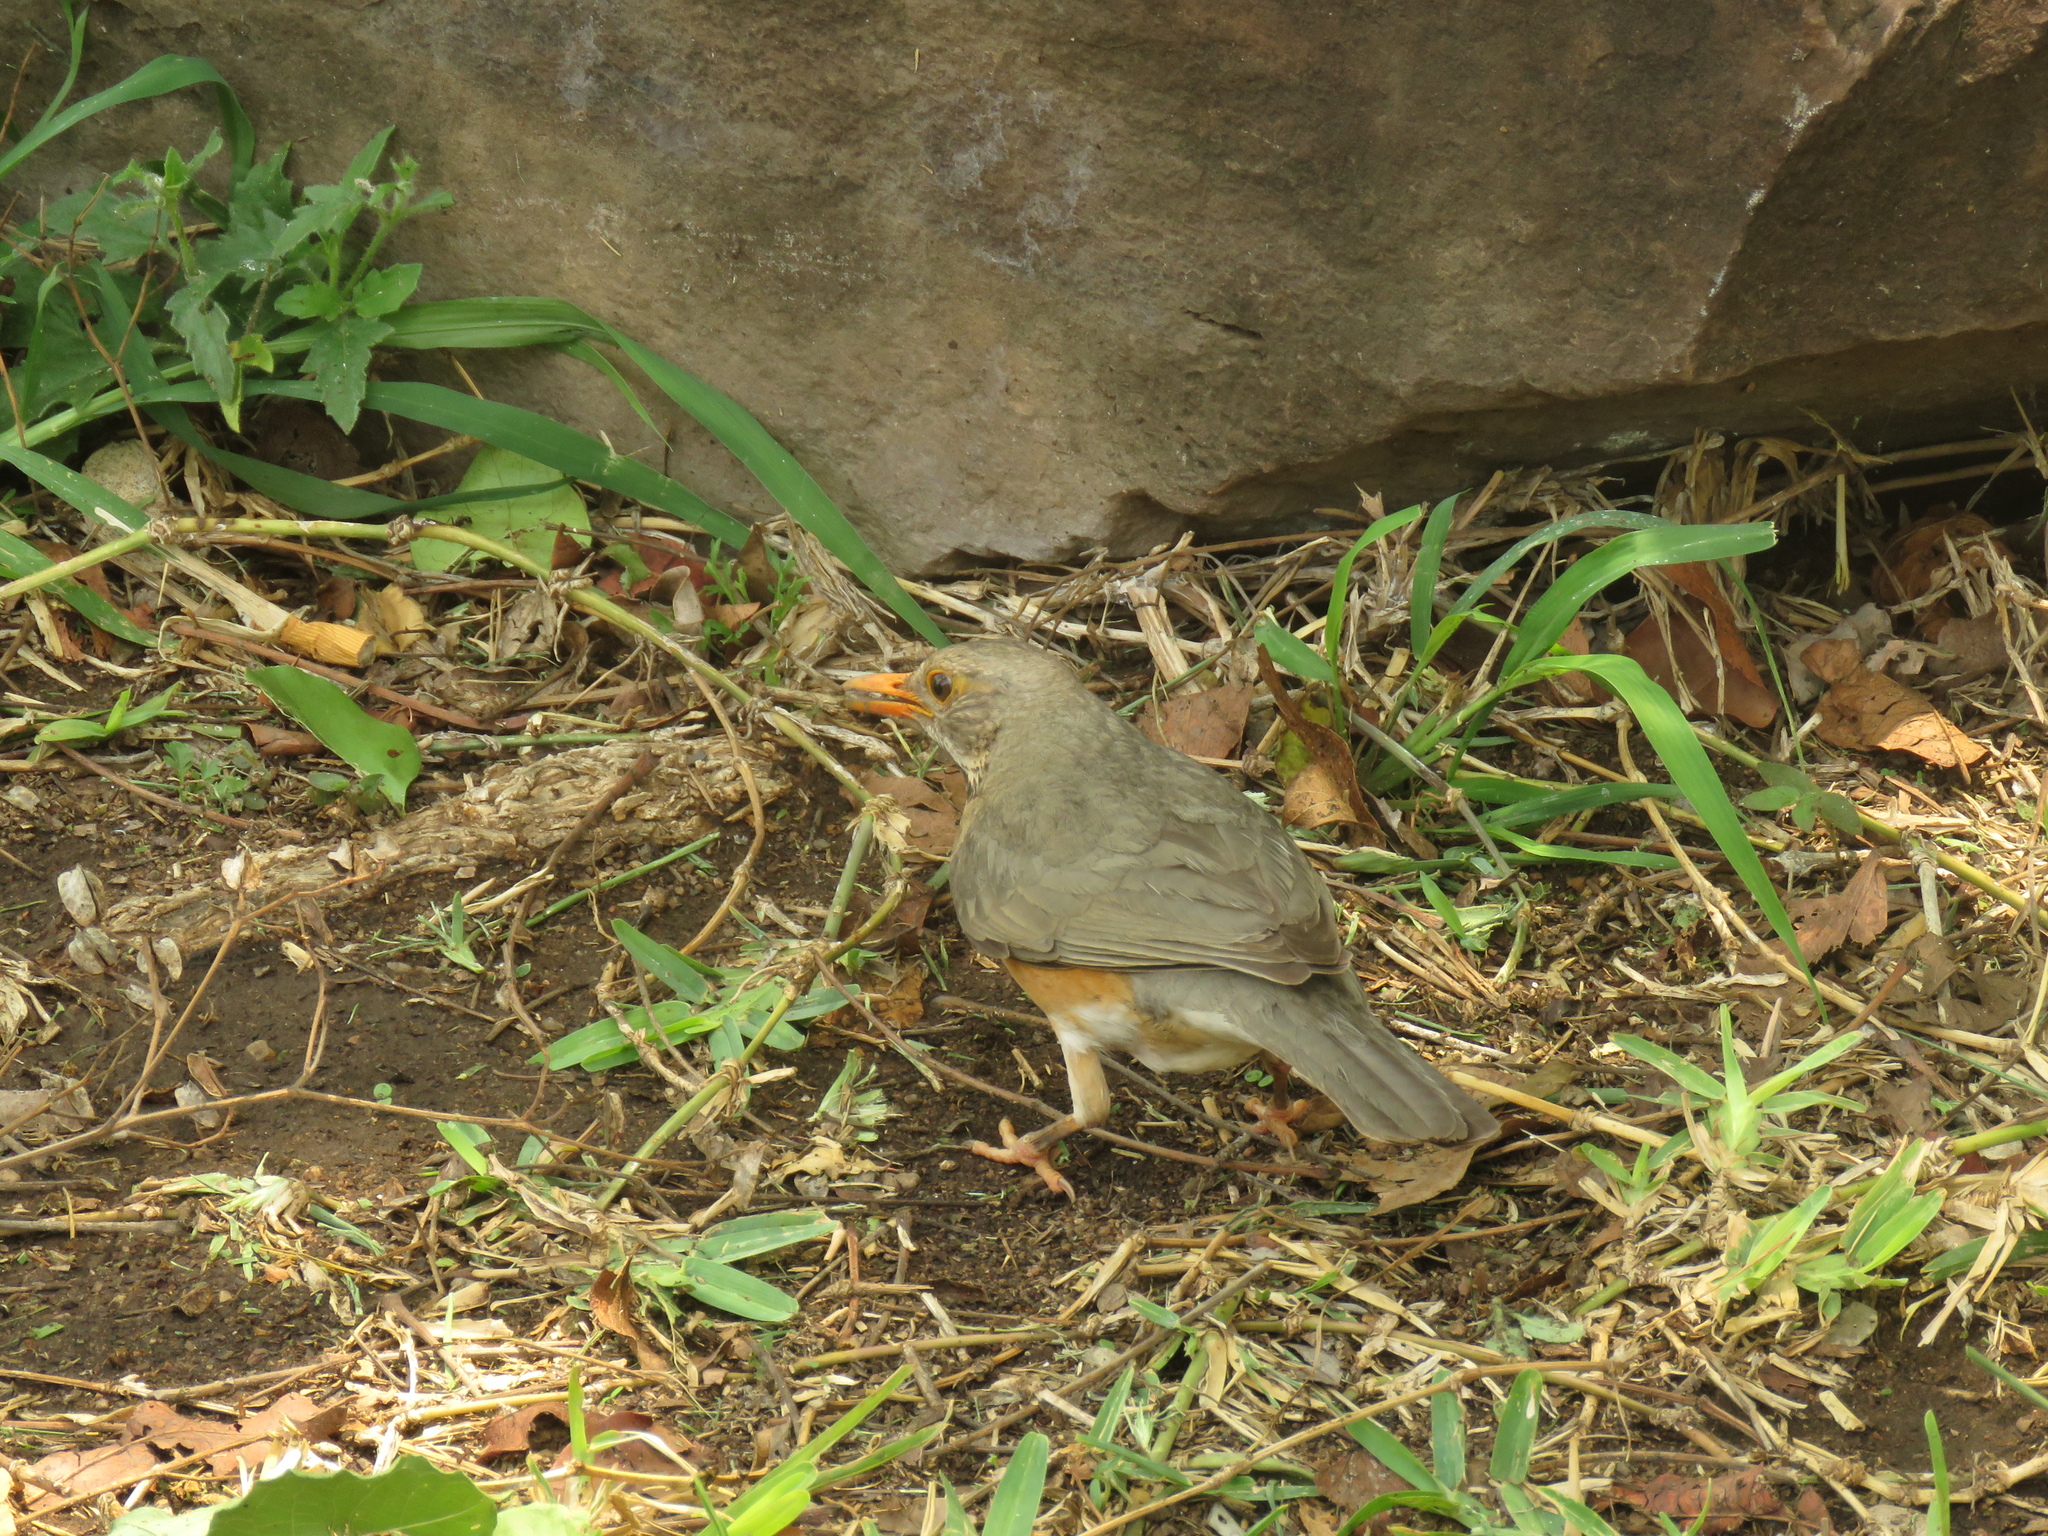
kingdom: Animalia
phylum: Chordata
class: Aves
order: Passeriformes
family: Turdidae
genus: Turdus
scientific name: Turdus libonyana
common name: Kurrichane thrush
